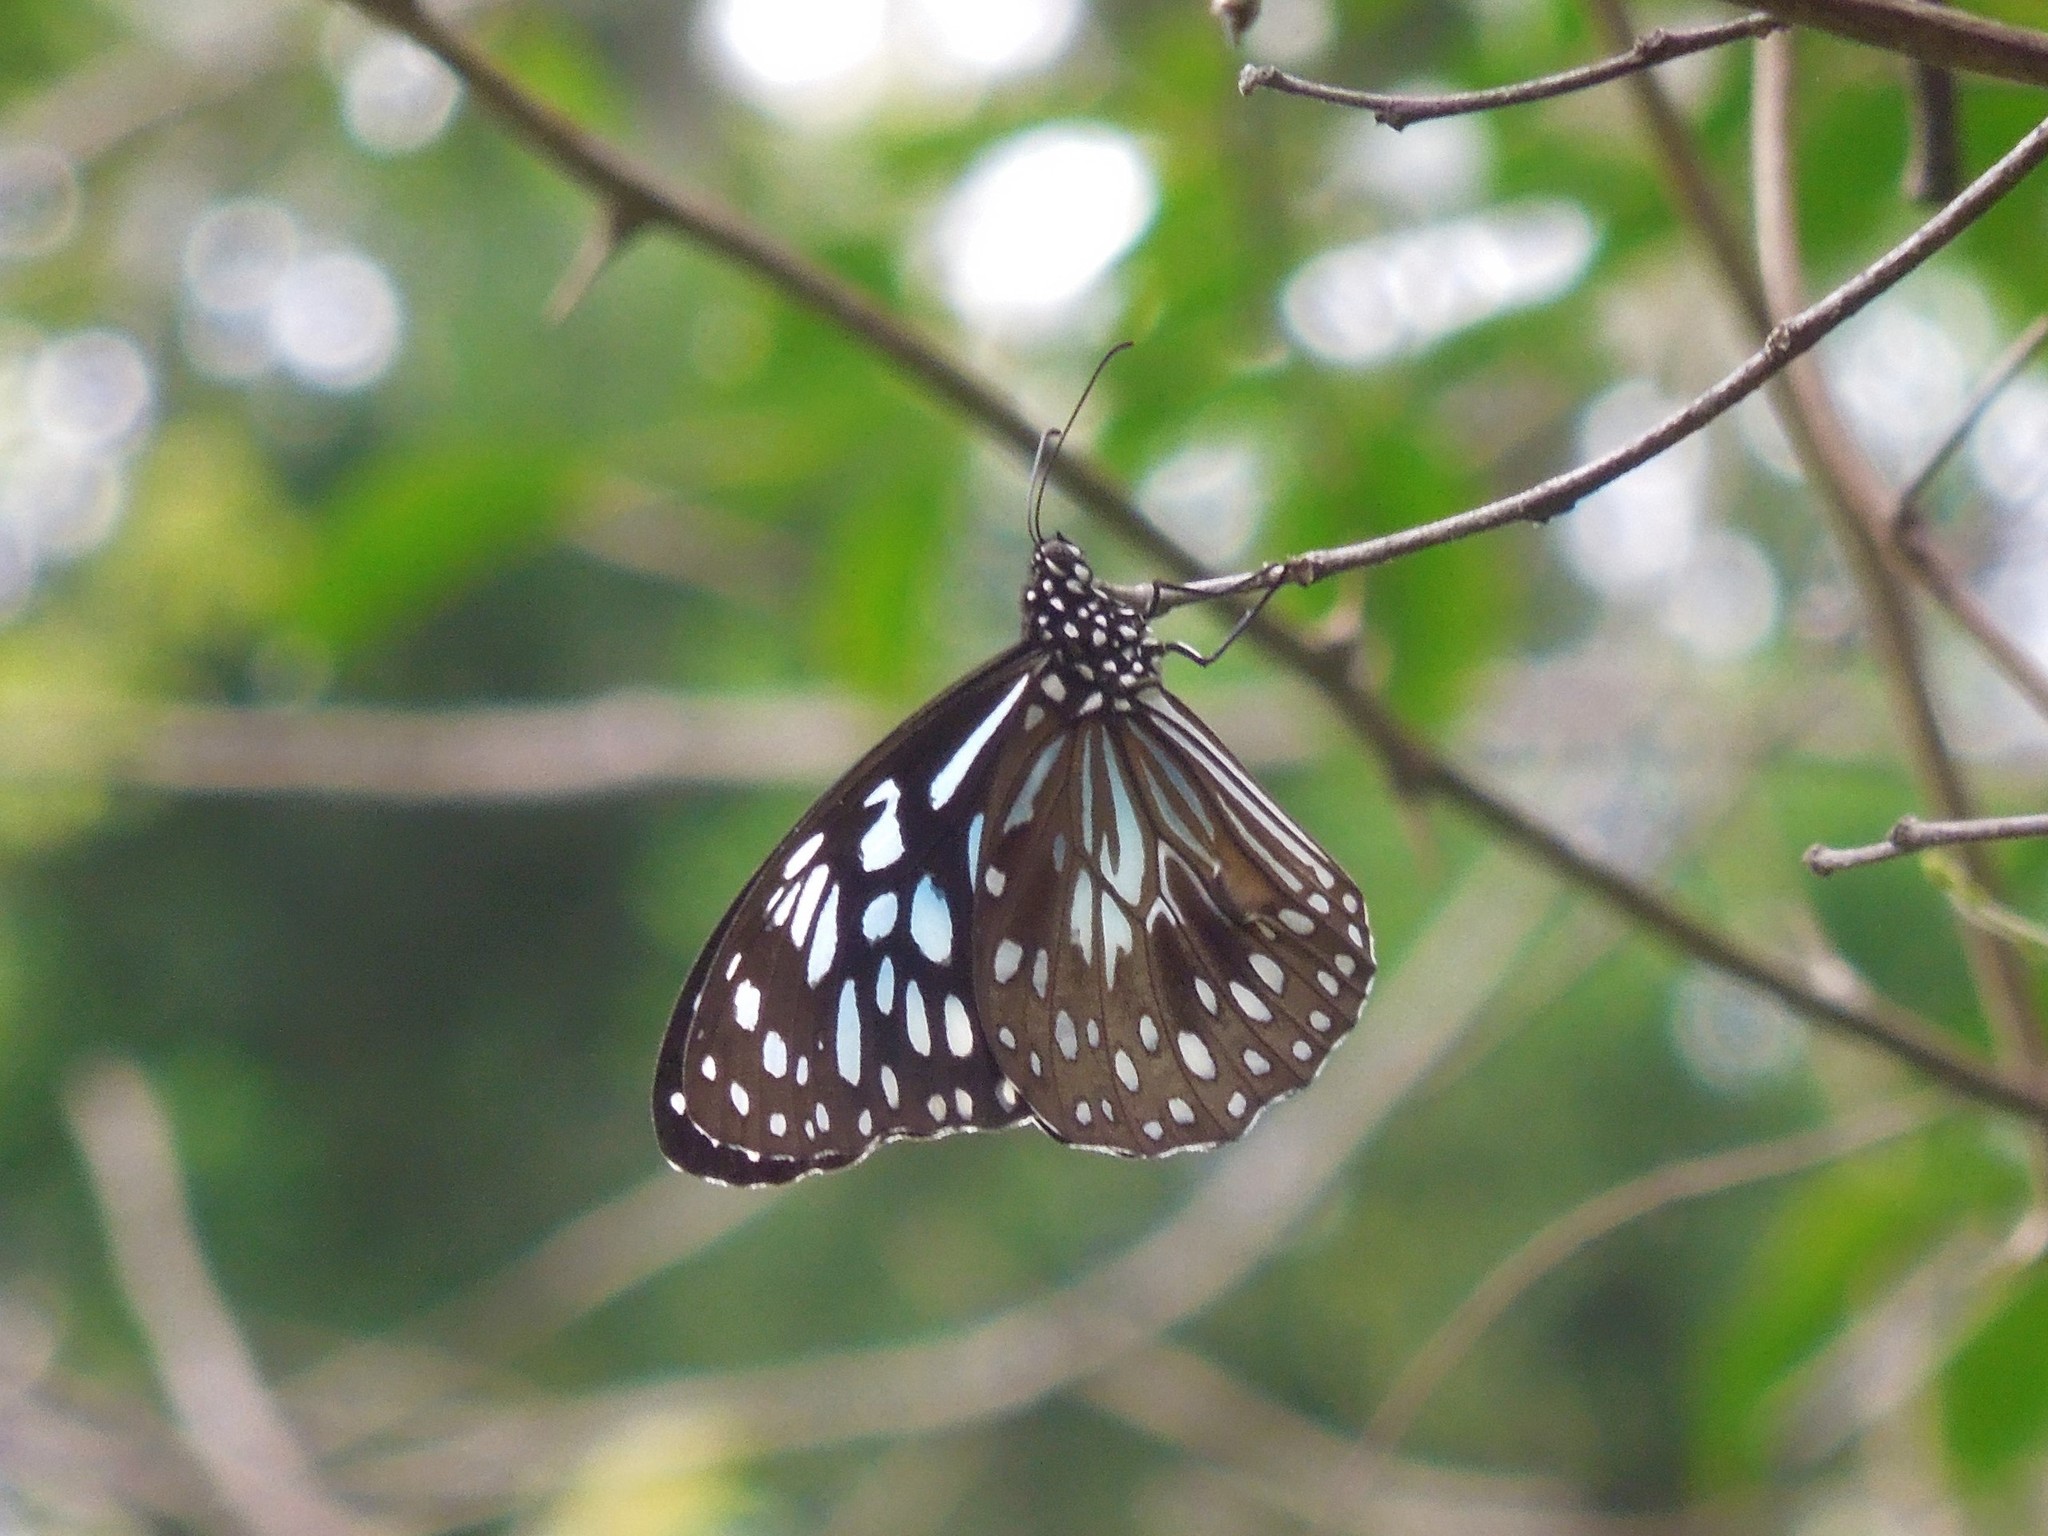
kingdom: Animalia
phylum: Arthropoda
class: Insecta
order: Lepidoptera
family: Nymphalidae
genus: Tirumala
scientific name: Tirumala hamata
